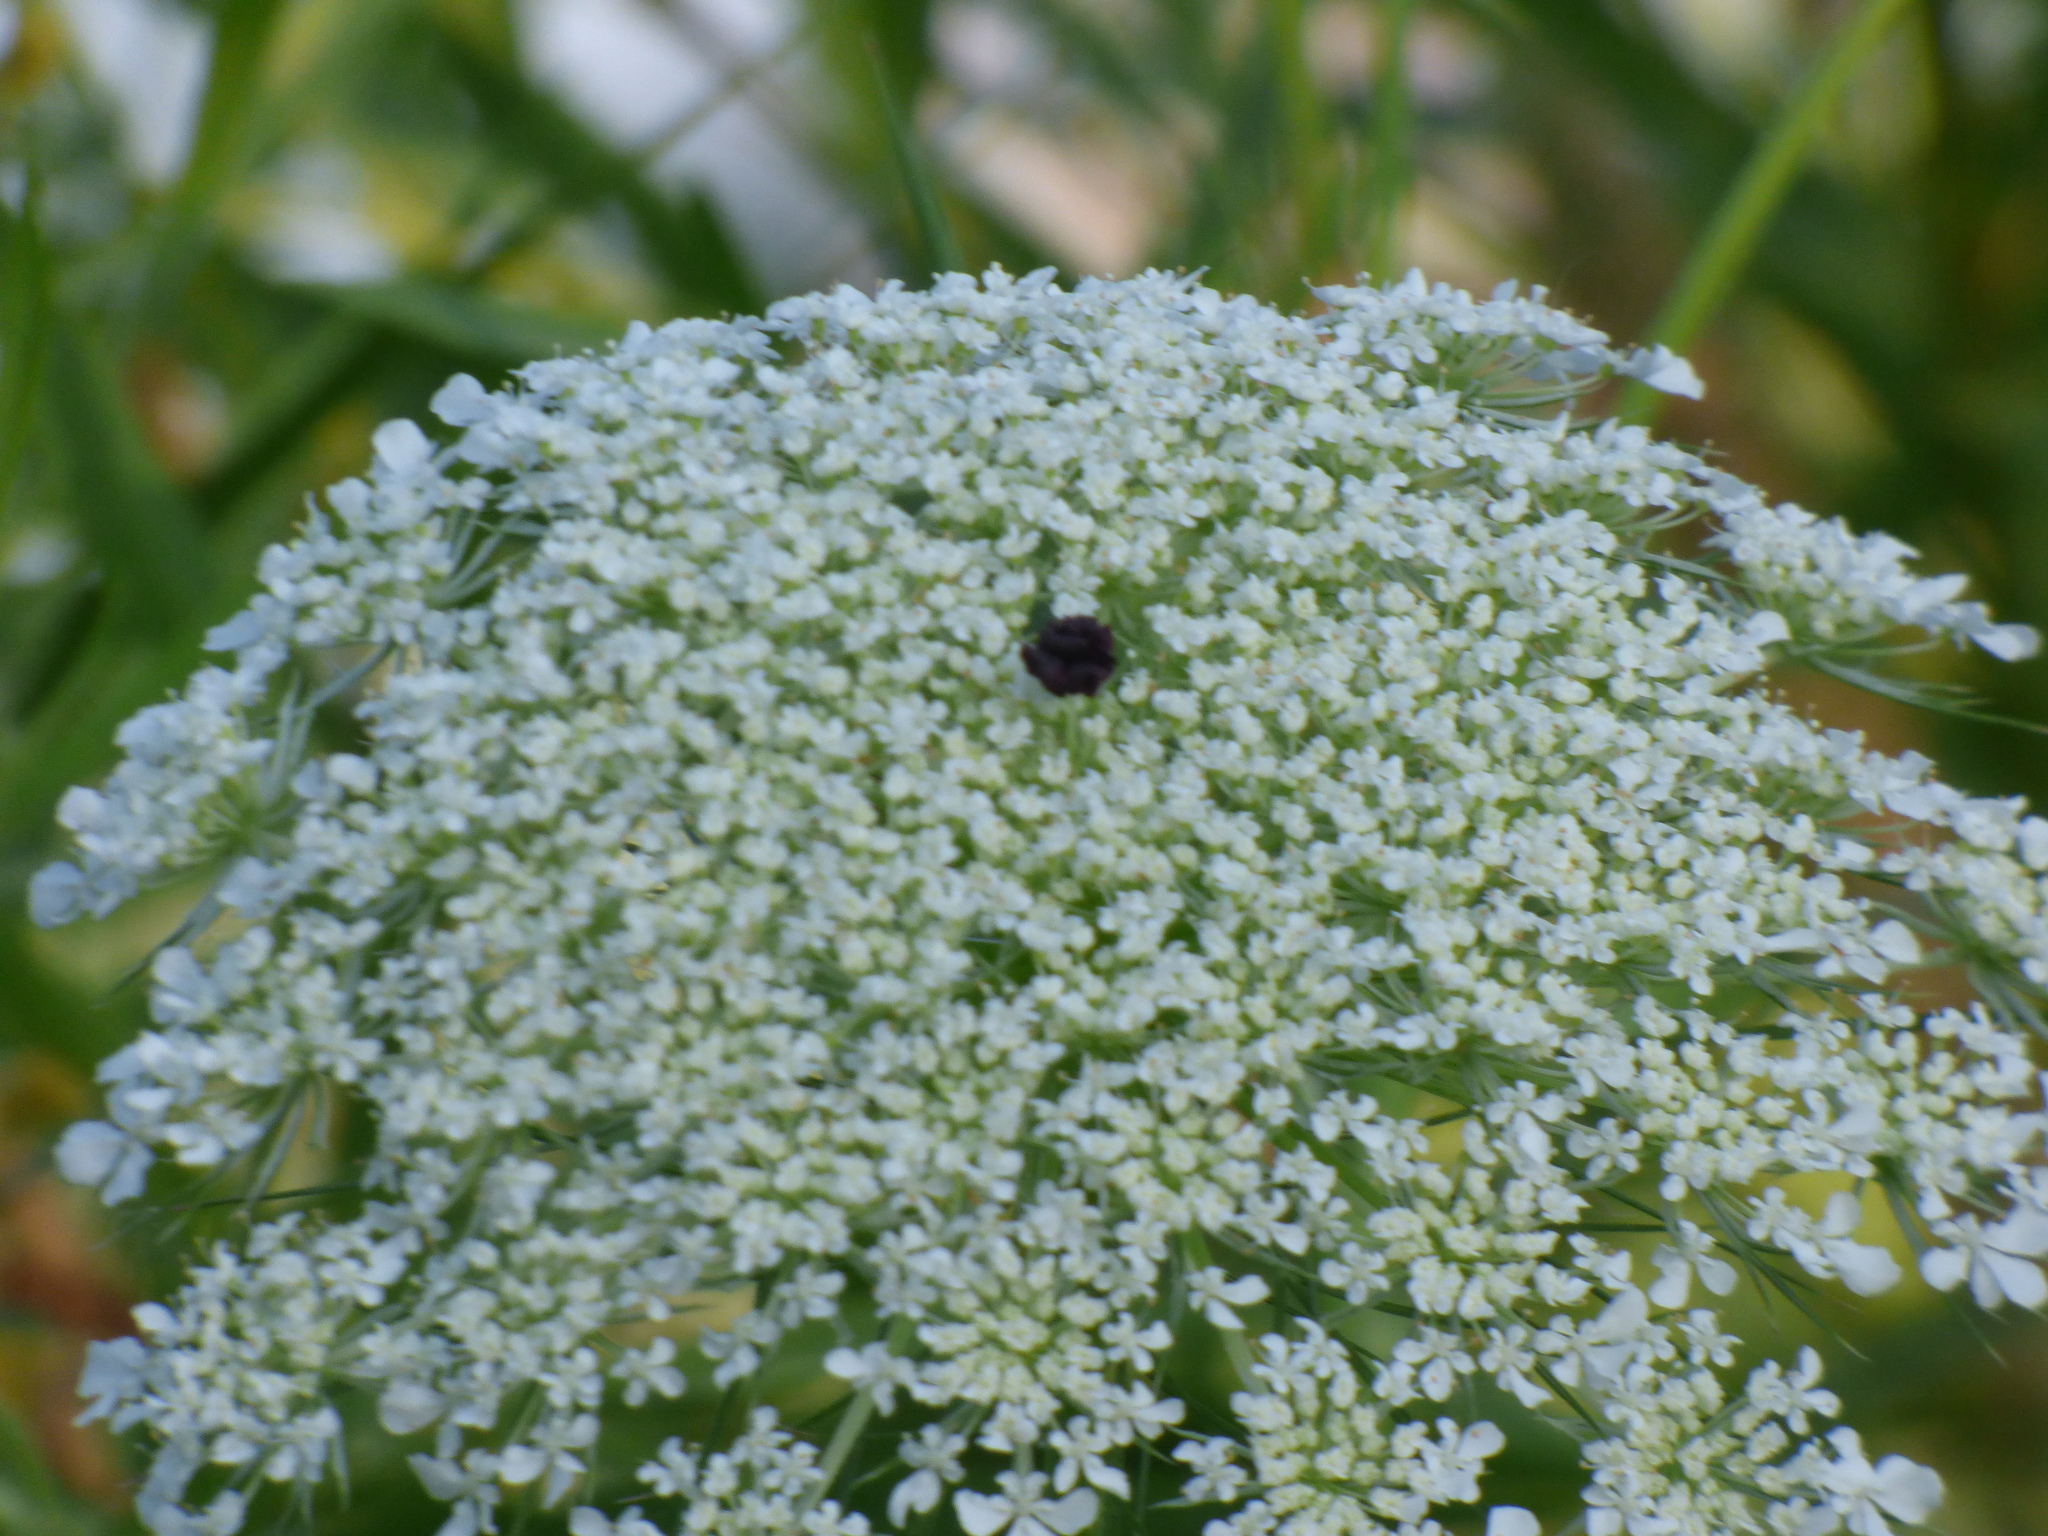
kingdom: Plantae
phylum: Tracheophyta
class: Magnoliopsida
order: Apiales
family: Apiaceae
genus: Daucus
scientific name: Daucus carota
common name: Wild carrot
